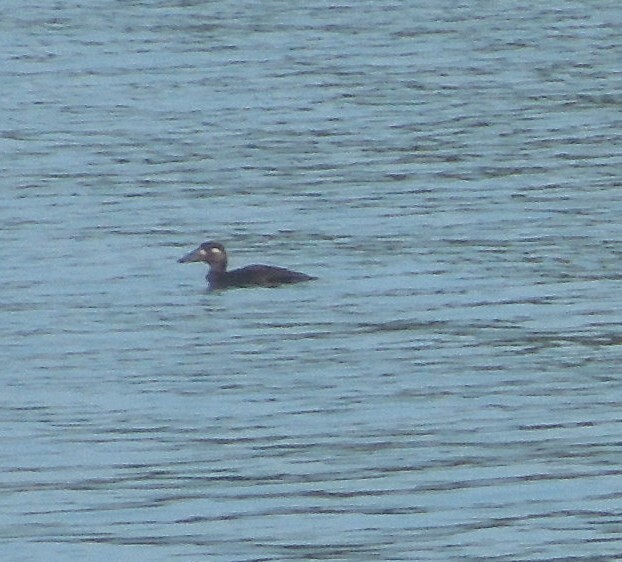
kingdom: Animalia
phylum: Chordata
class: Aves
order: Anseriformes
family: Anatidae
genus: Melanitta
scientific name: Melanitta perspicillata
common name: Surf scoter
